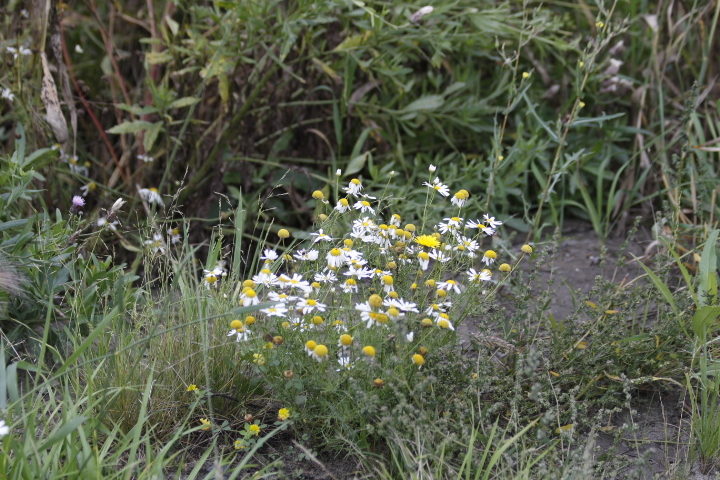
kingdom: Plantae
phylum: Tracheophyta
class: Magnoliopsida
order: Asterales
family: Asteraceae
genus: Tripleurospermum
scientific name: Tripleurospermum inodorum
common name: Scentless mayweed
